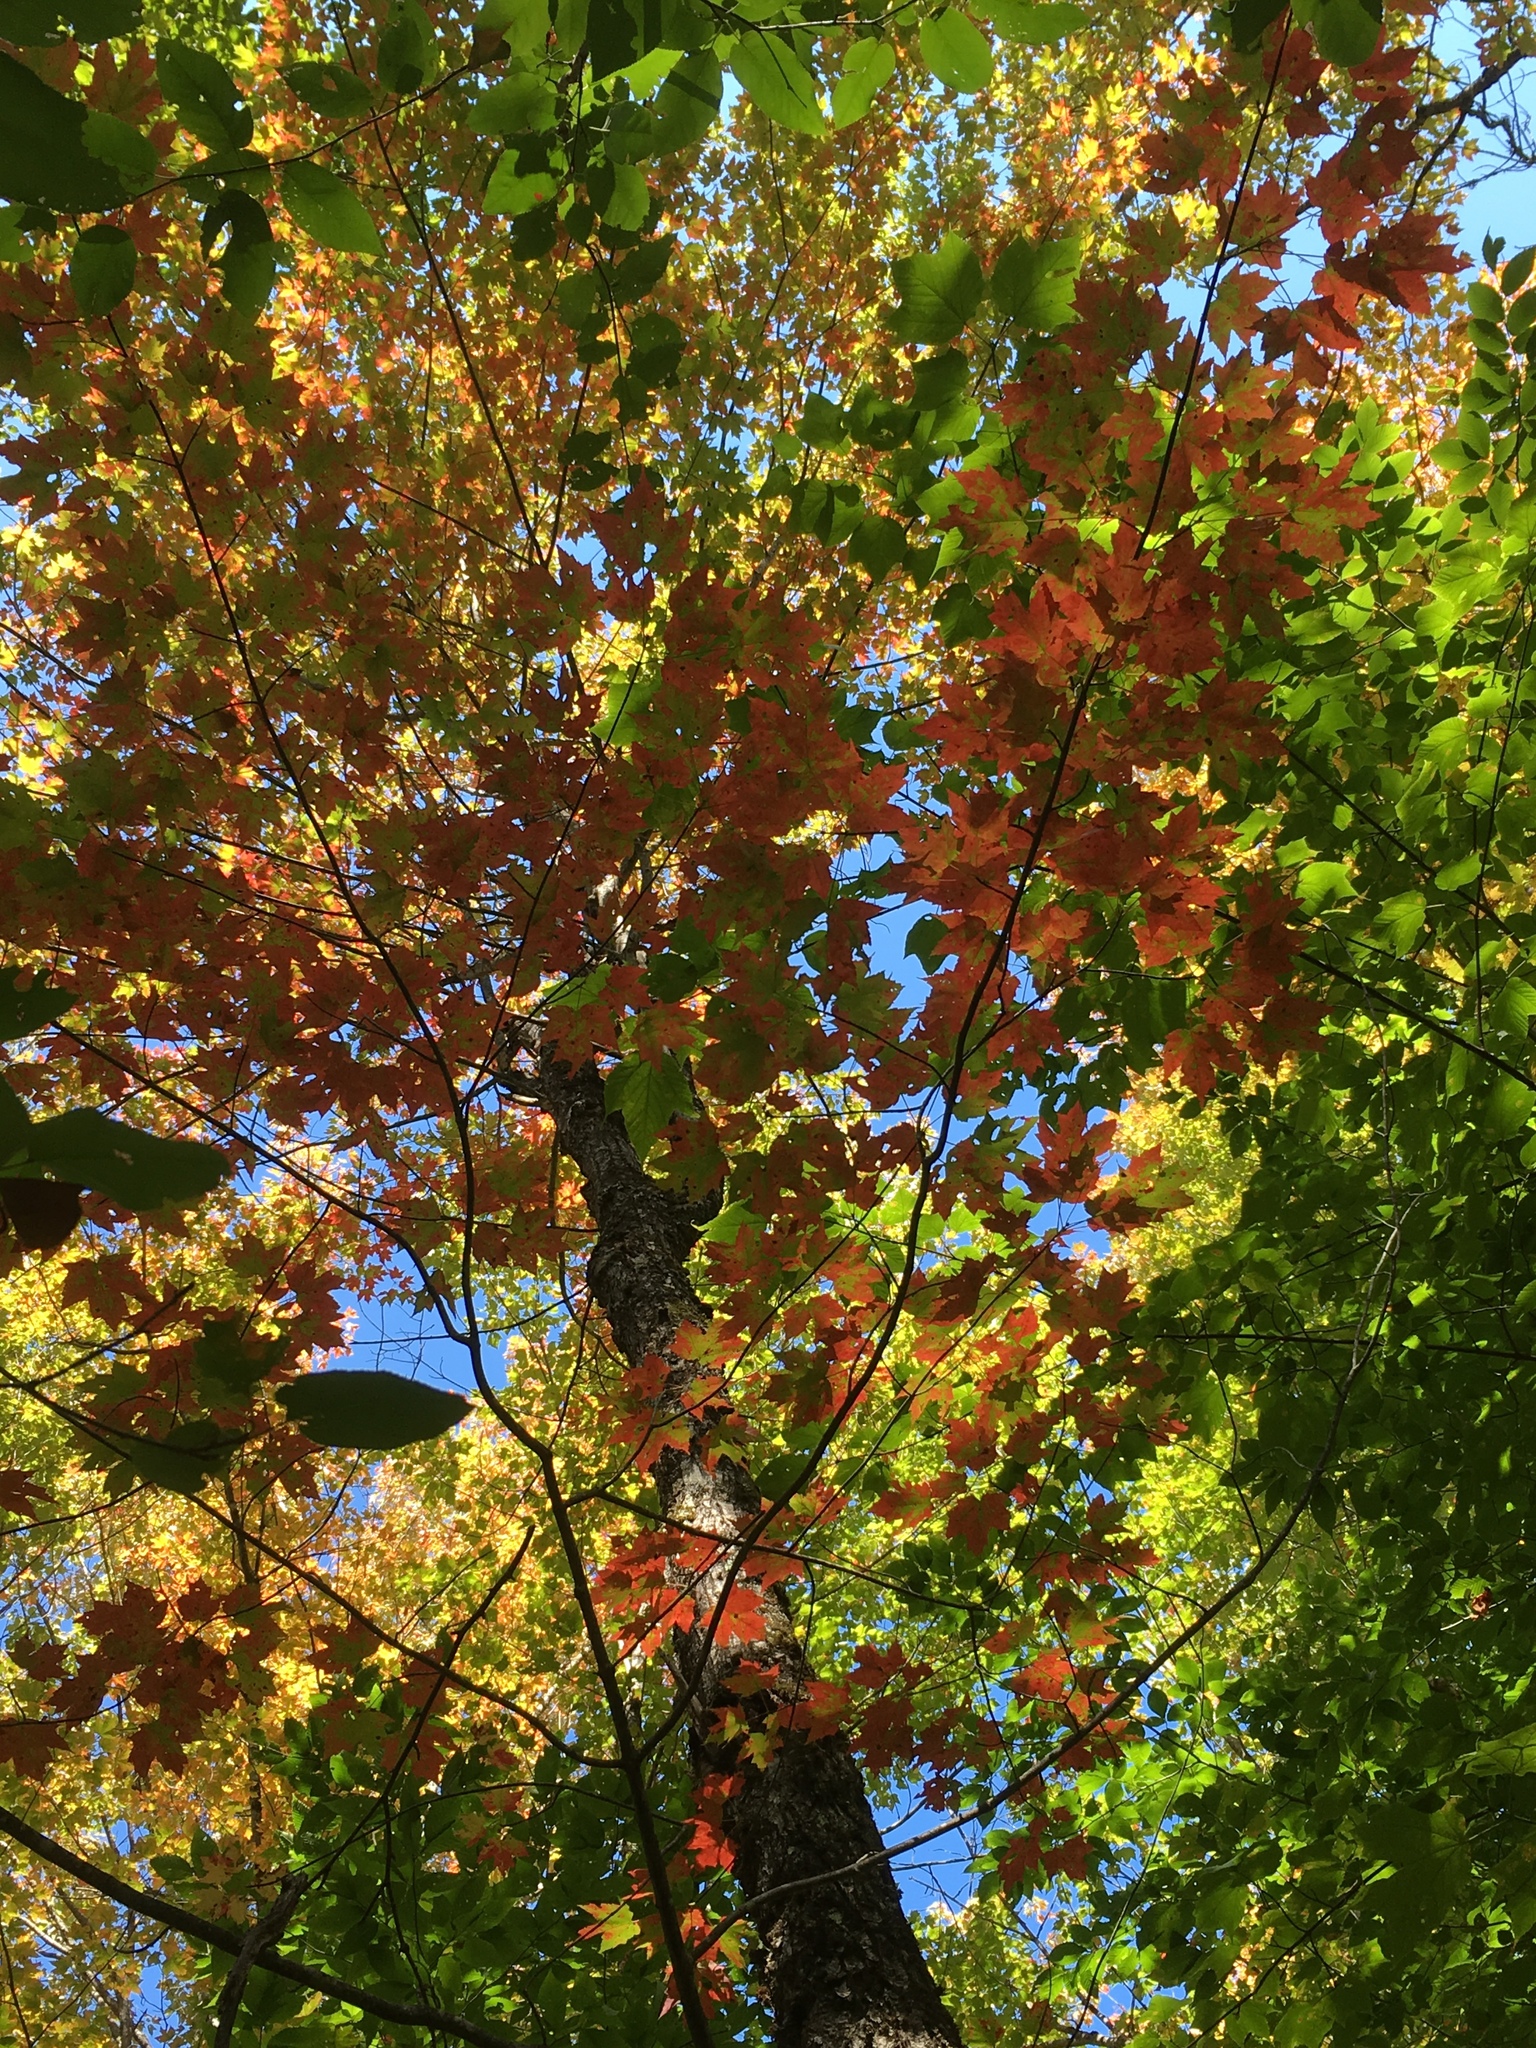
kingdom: Plantae
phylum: Tracheophyta
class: Magnoliopsida
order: Sapindales
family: Sapindaceae
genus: Acer
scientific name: Acer rubrum
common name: Red maple
